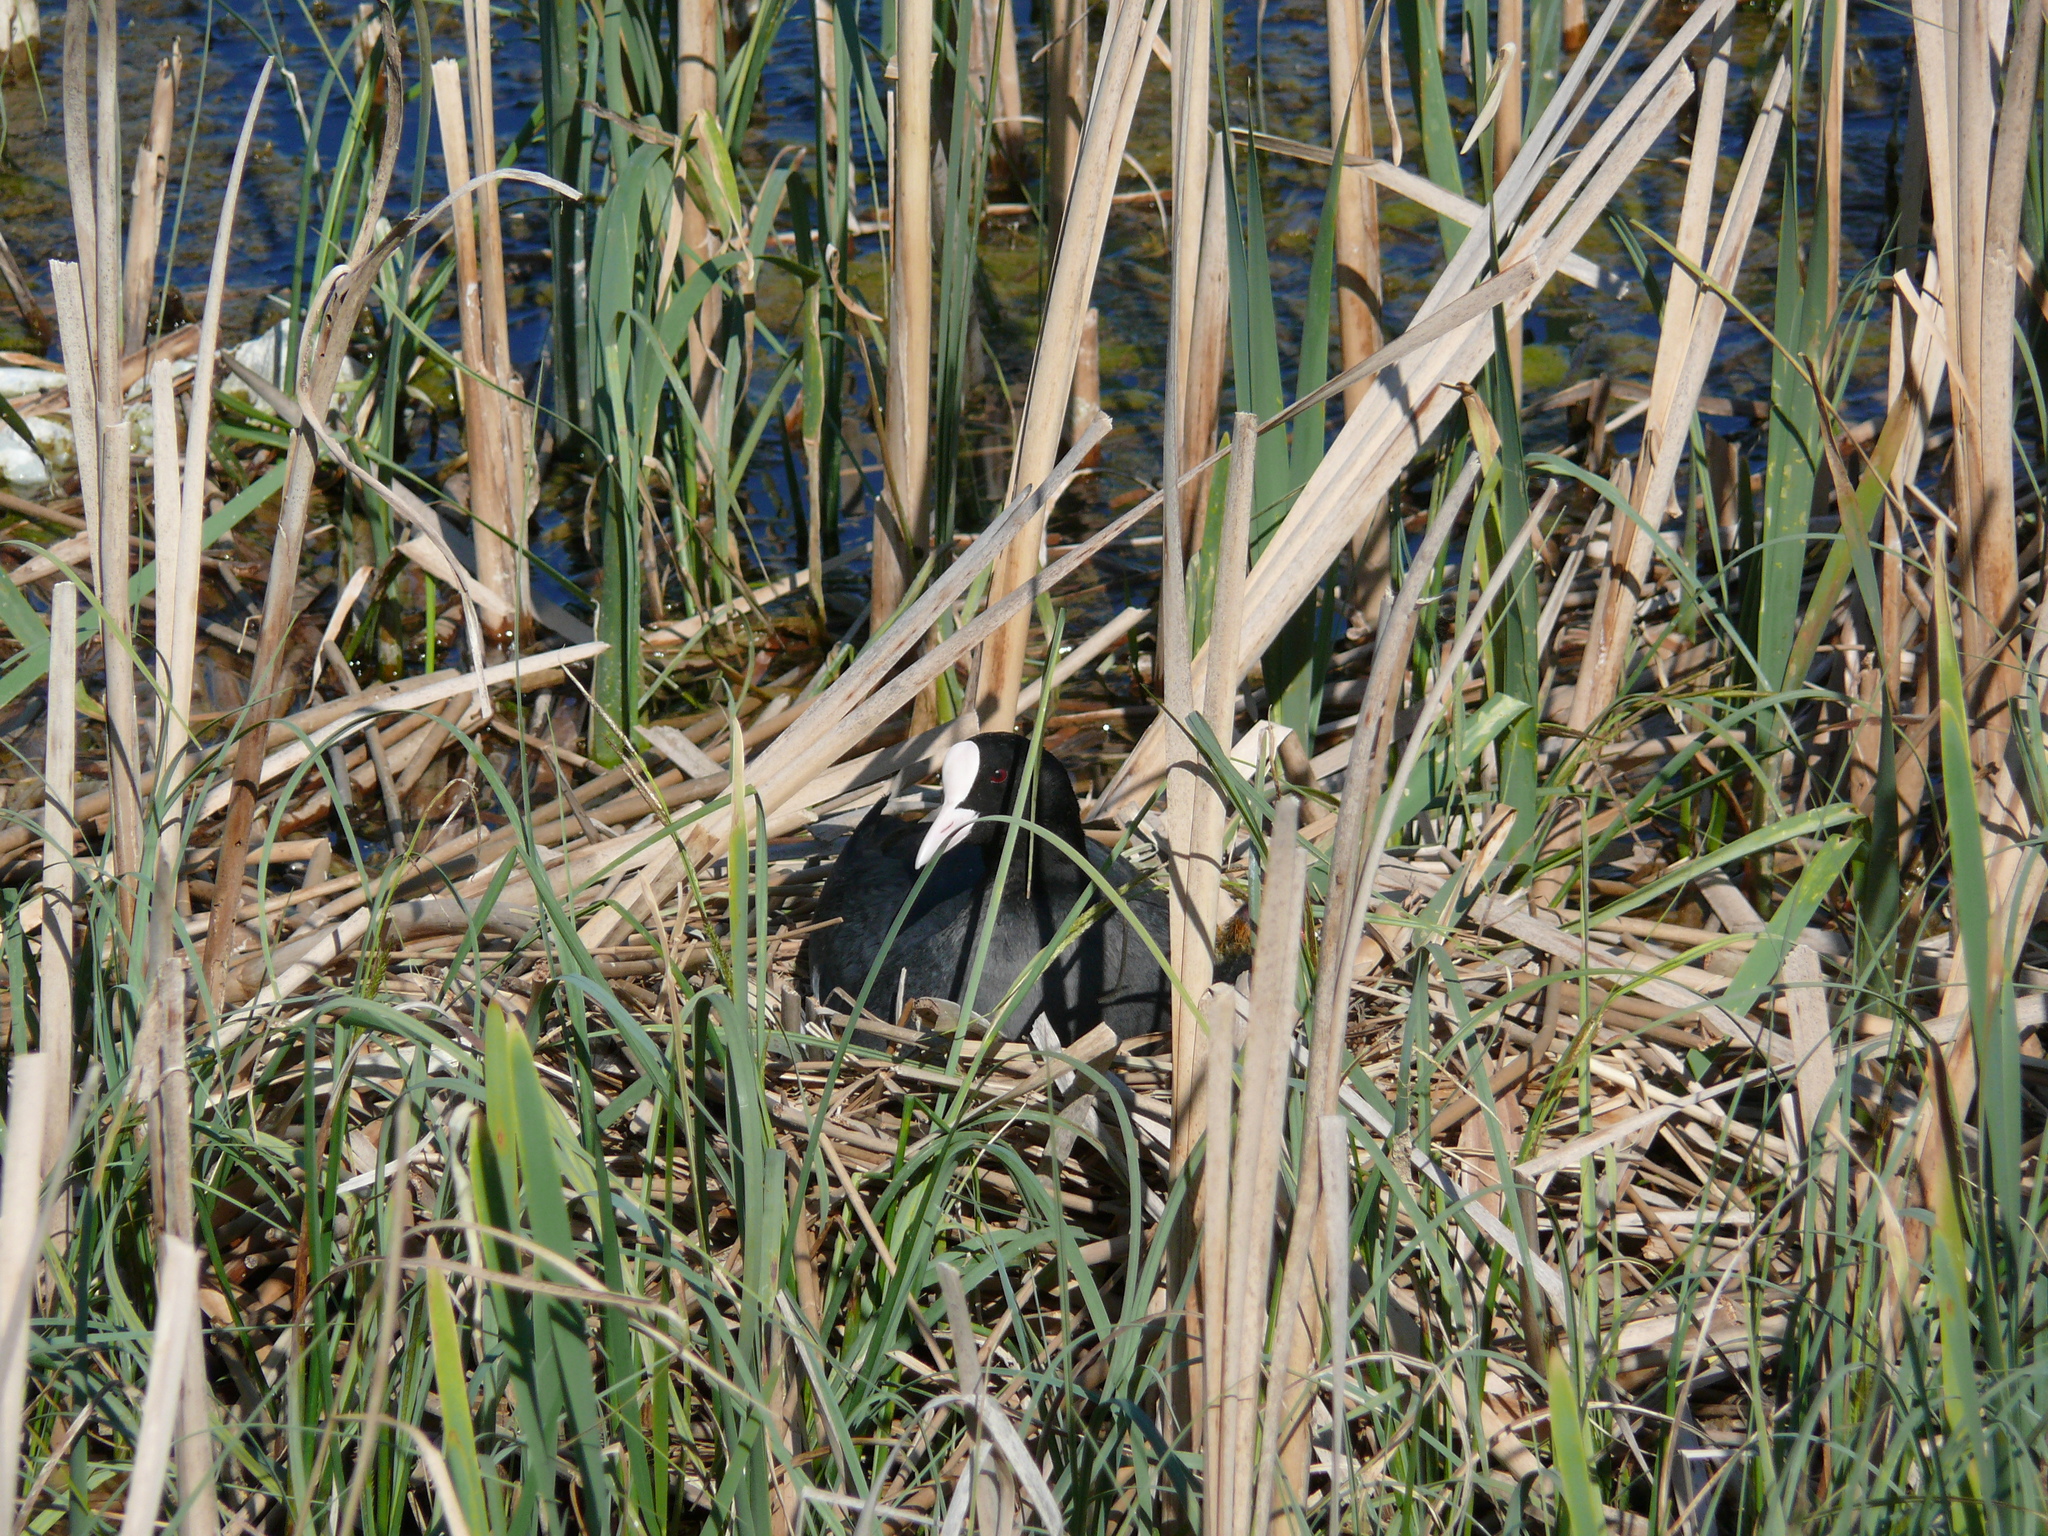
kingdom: Animalia
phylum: Chordata
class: Aves
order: Gruiformes
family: Rallidae
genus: Fulica
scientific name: Fulica atra
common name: Eurasian coot
